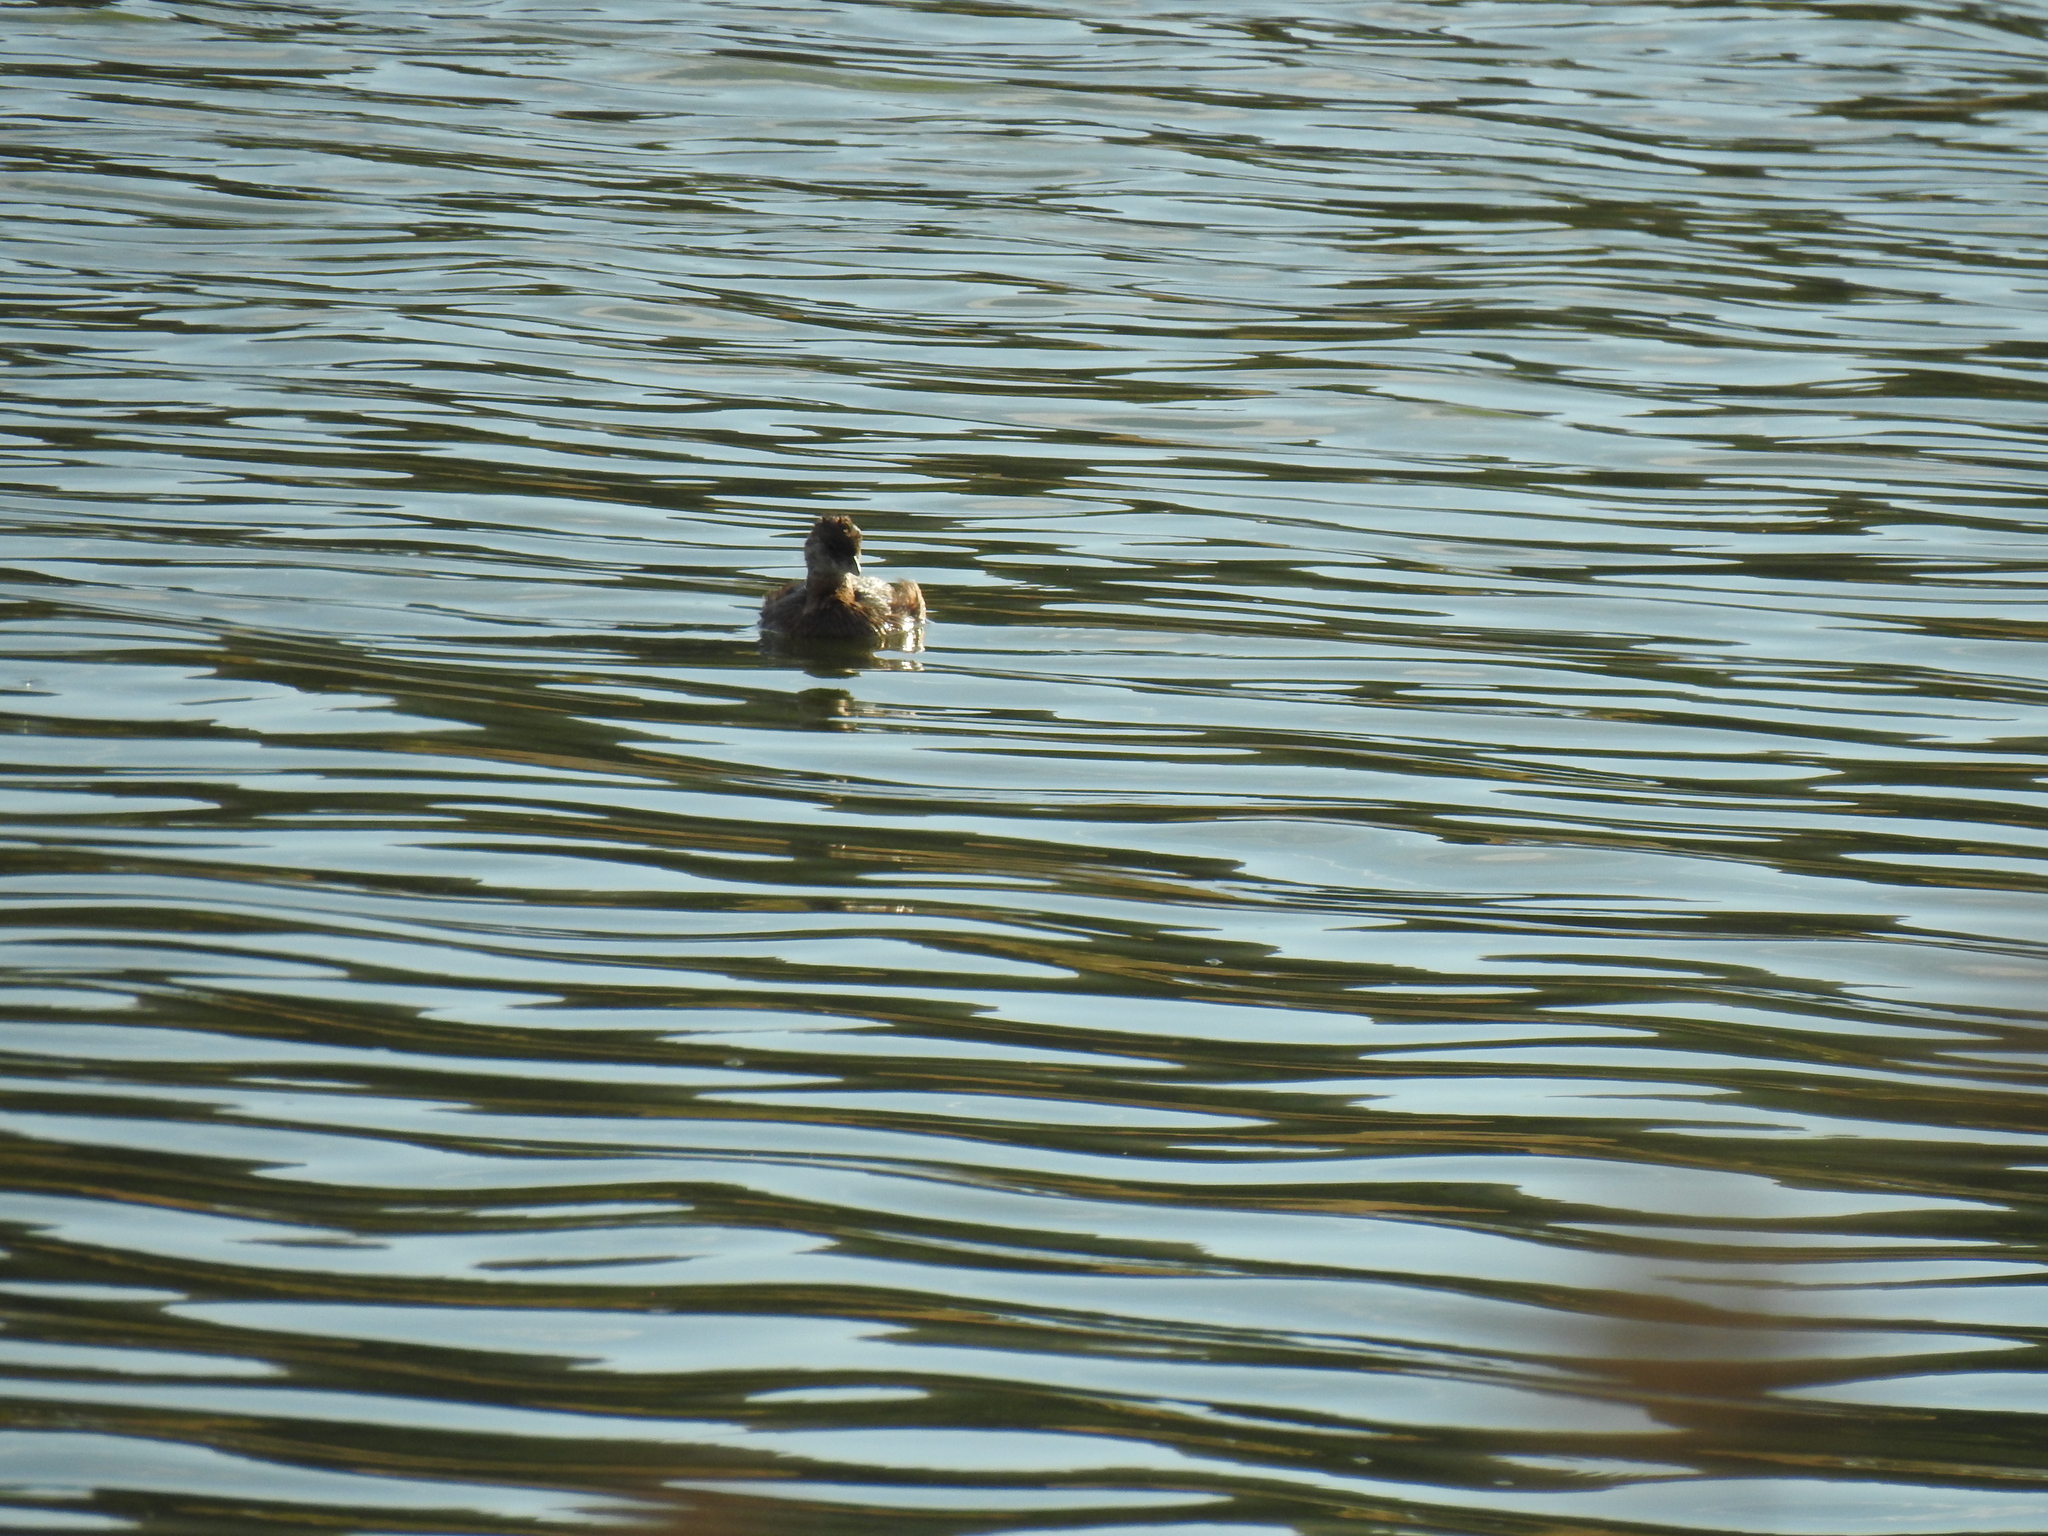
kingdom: Animalia
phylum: Chordata
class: Aves
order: Podicipediformes
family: Podicipedidae
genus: Podilymbus
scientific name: Podilymbus podiceps
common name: Pied-billed grebe
